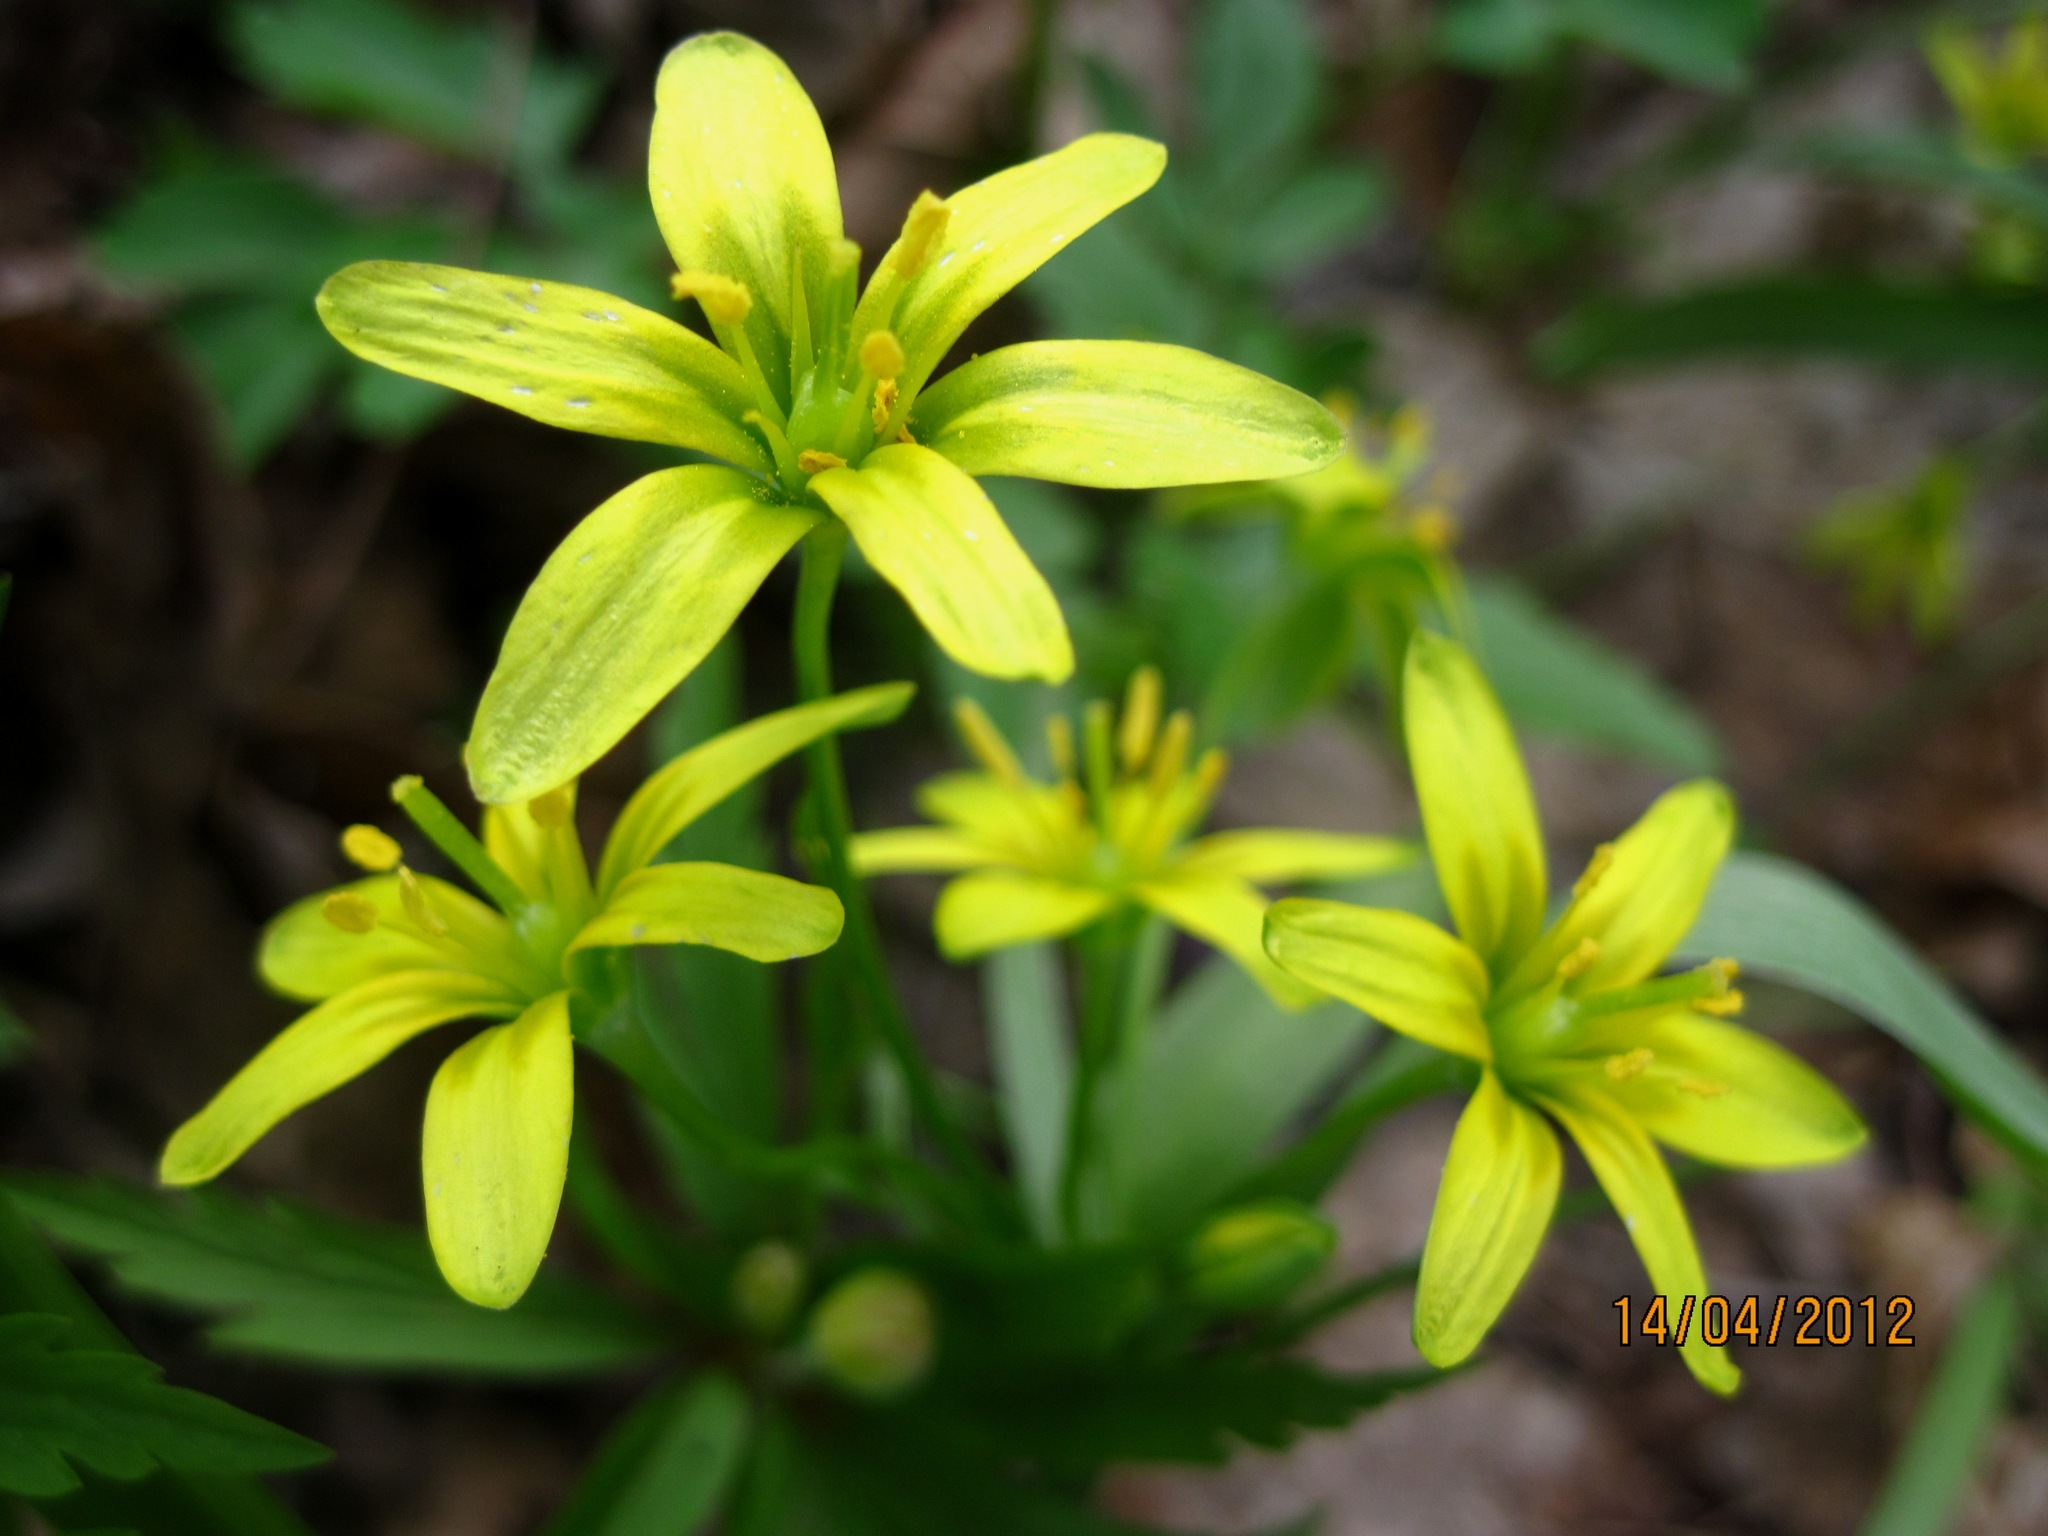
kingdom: Plantae
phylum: Tracheophyta
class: Liliopsida
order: Liliales
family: Liliaceae
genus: Gagea
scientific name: Gagea lutea
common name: Yellow star-of-bethlehem
